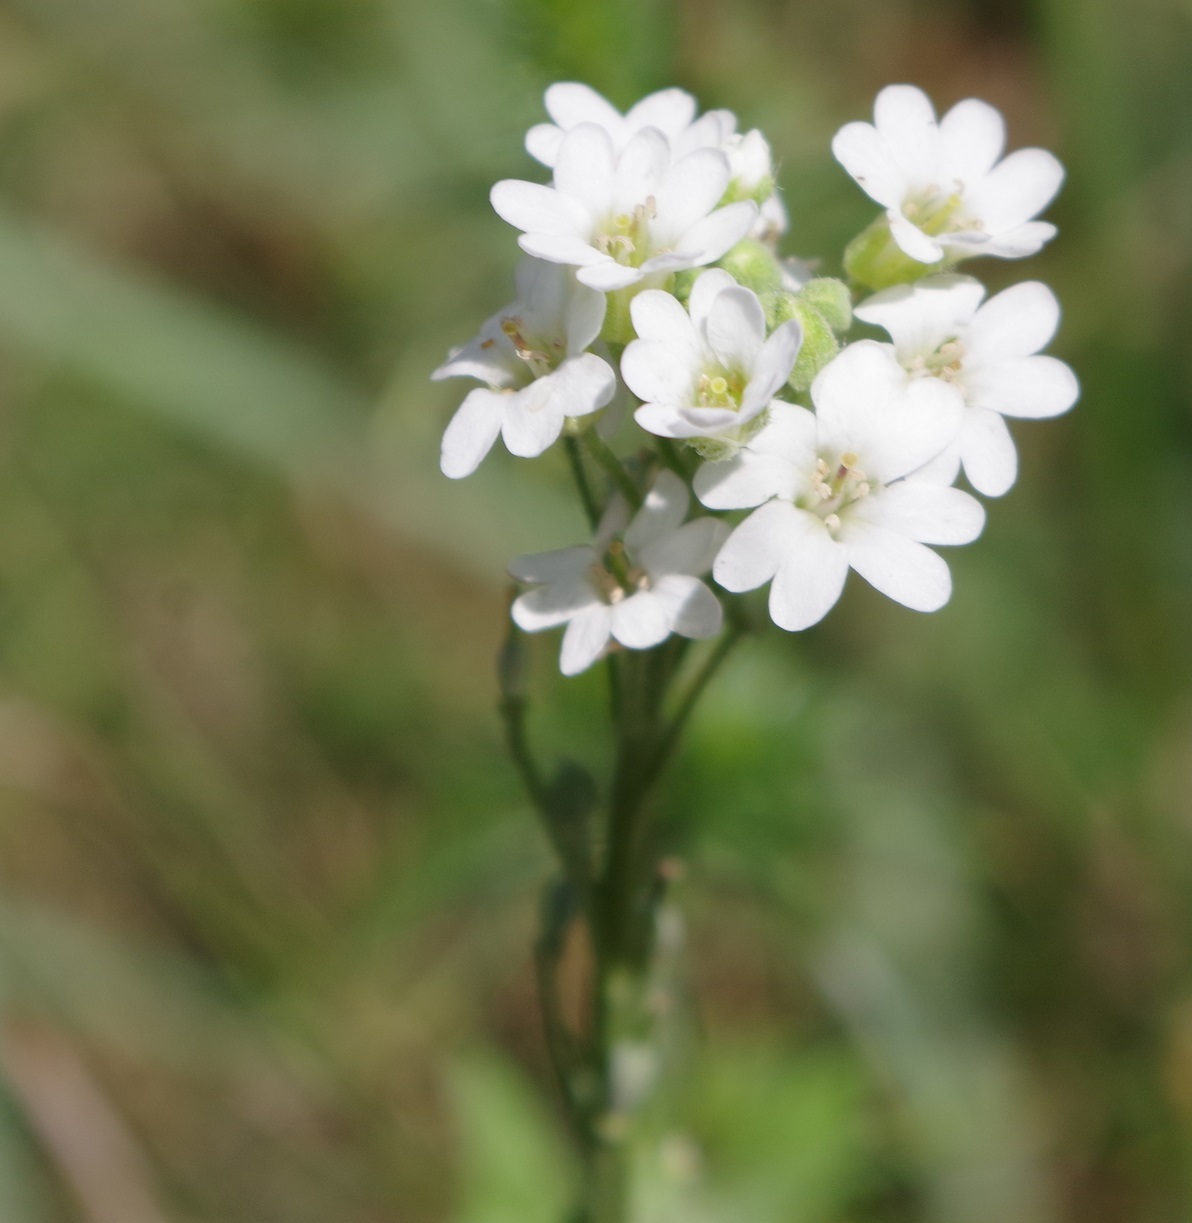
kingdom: Plantae
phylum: Tracheophyta
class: Magnoliopsida
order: Brassicales
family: Brassicaceae
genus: Berteroa
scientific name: Berteroa incana
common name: Hoary alison
